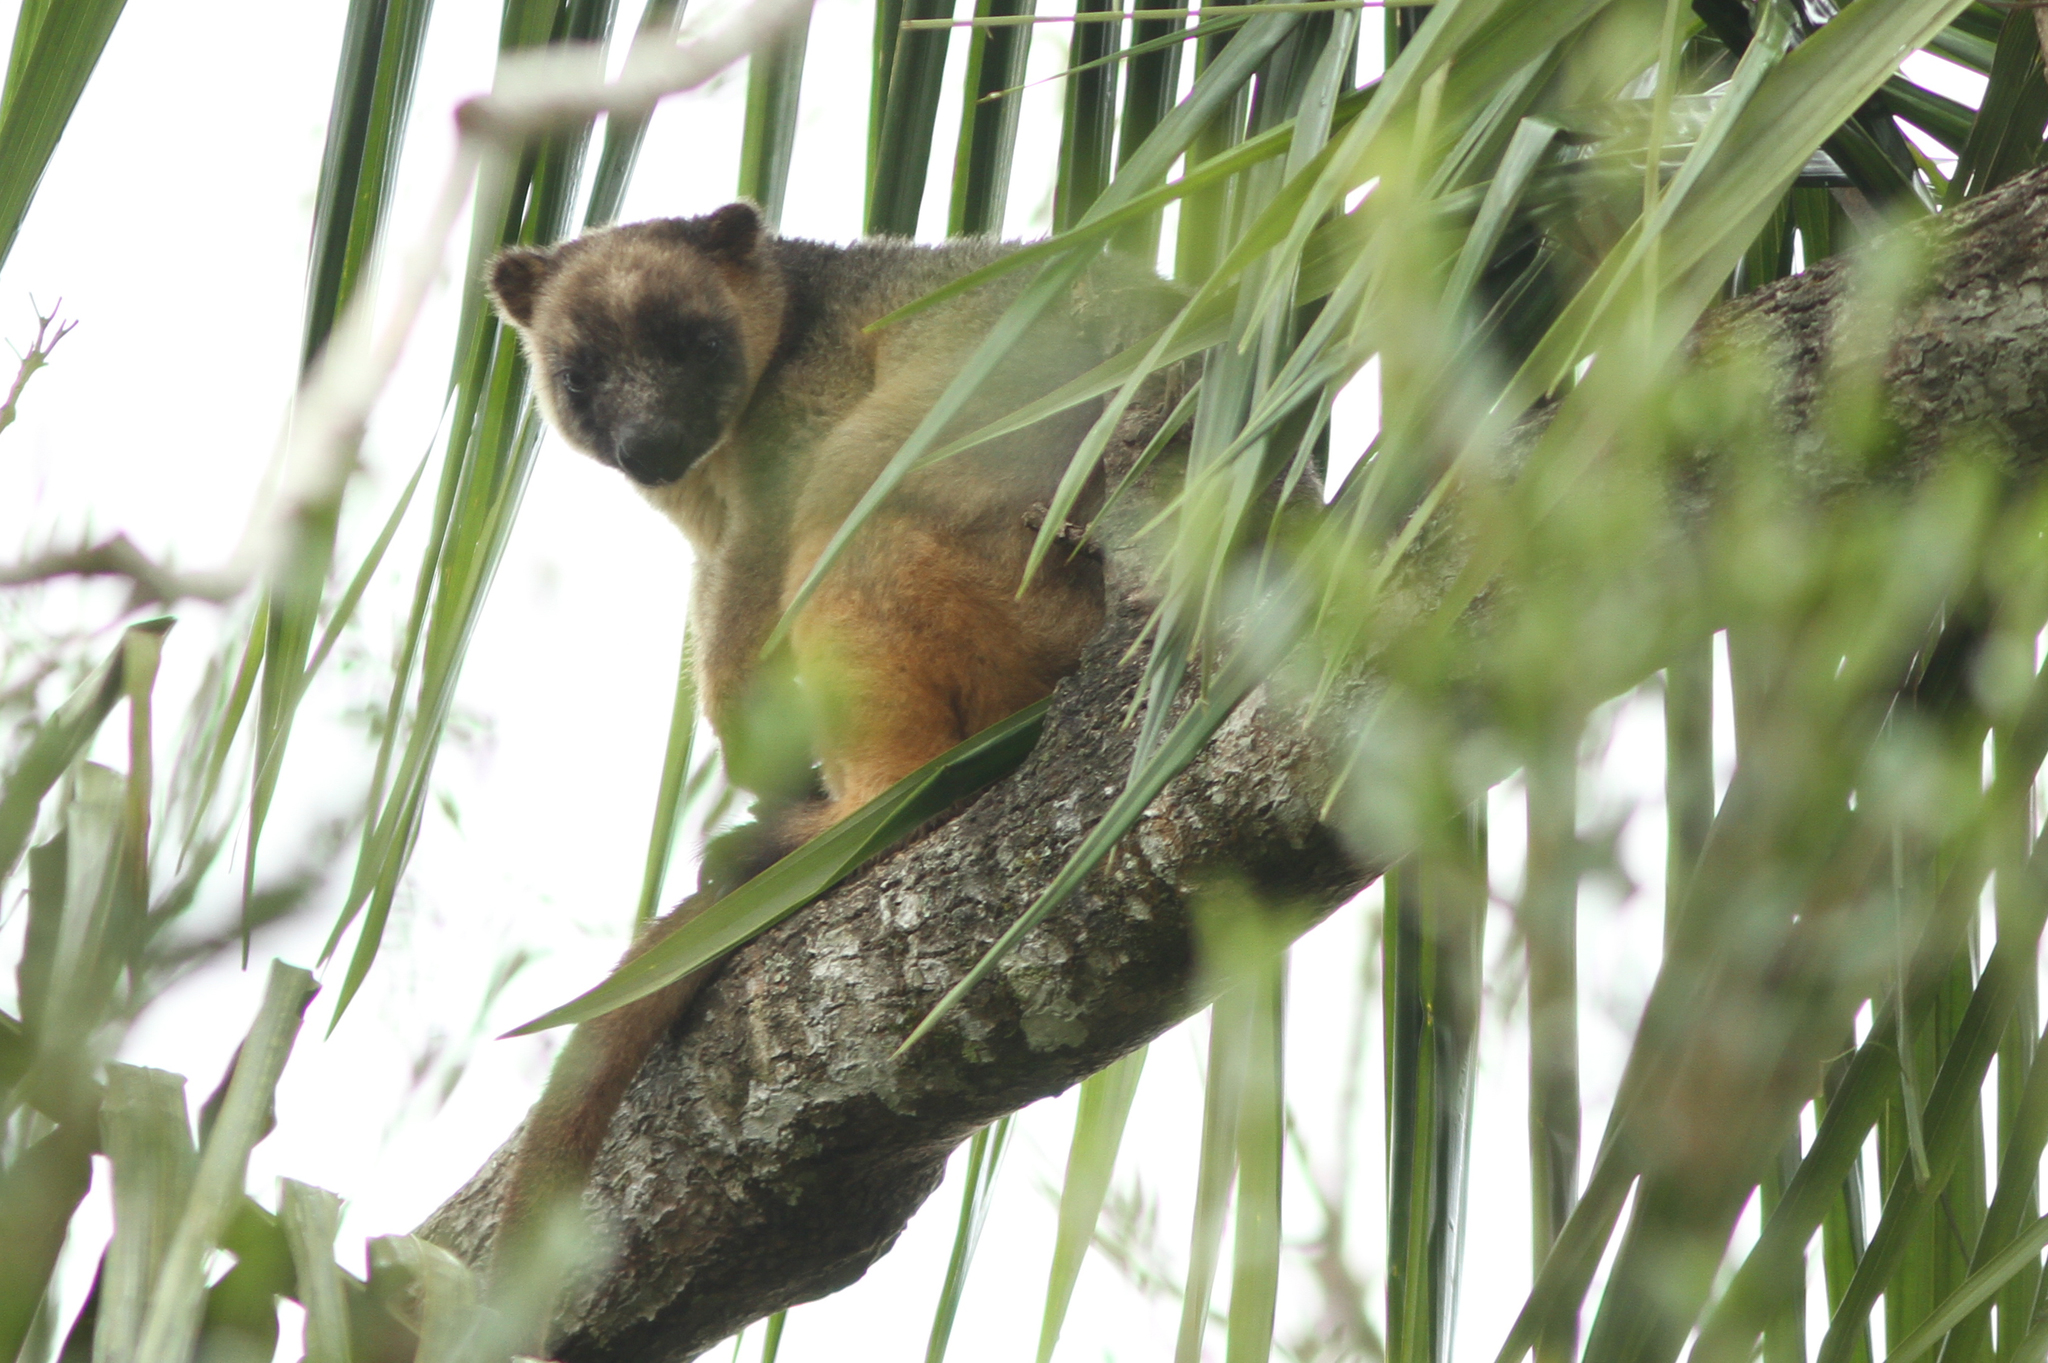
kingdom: Animalia
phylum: Chordata
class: Mammalia
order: Diprotodontia
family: Macropodidae
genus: Dendrolagus
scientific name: Dendrolagus lumholtzi
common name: Lumholtz's tree kangaroo
